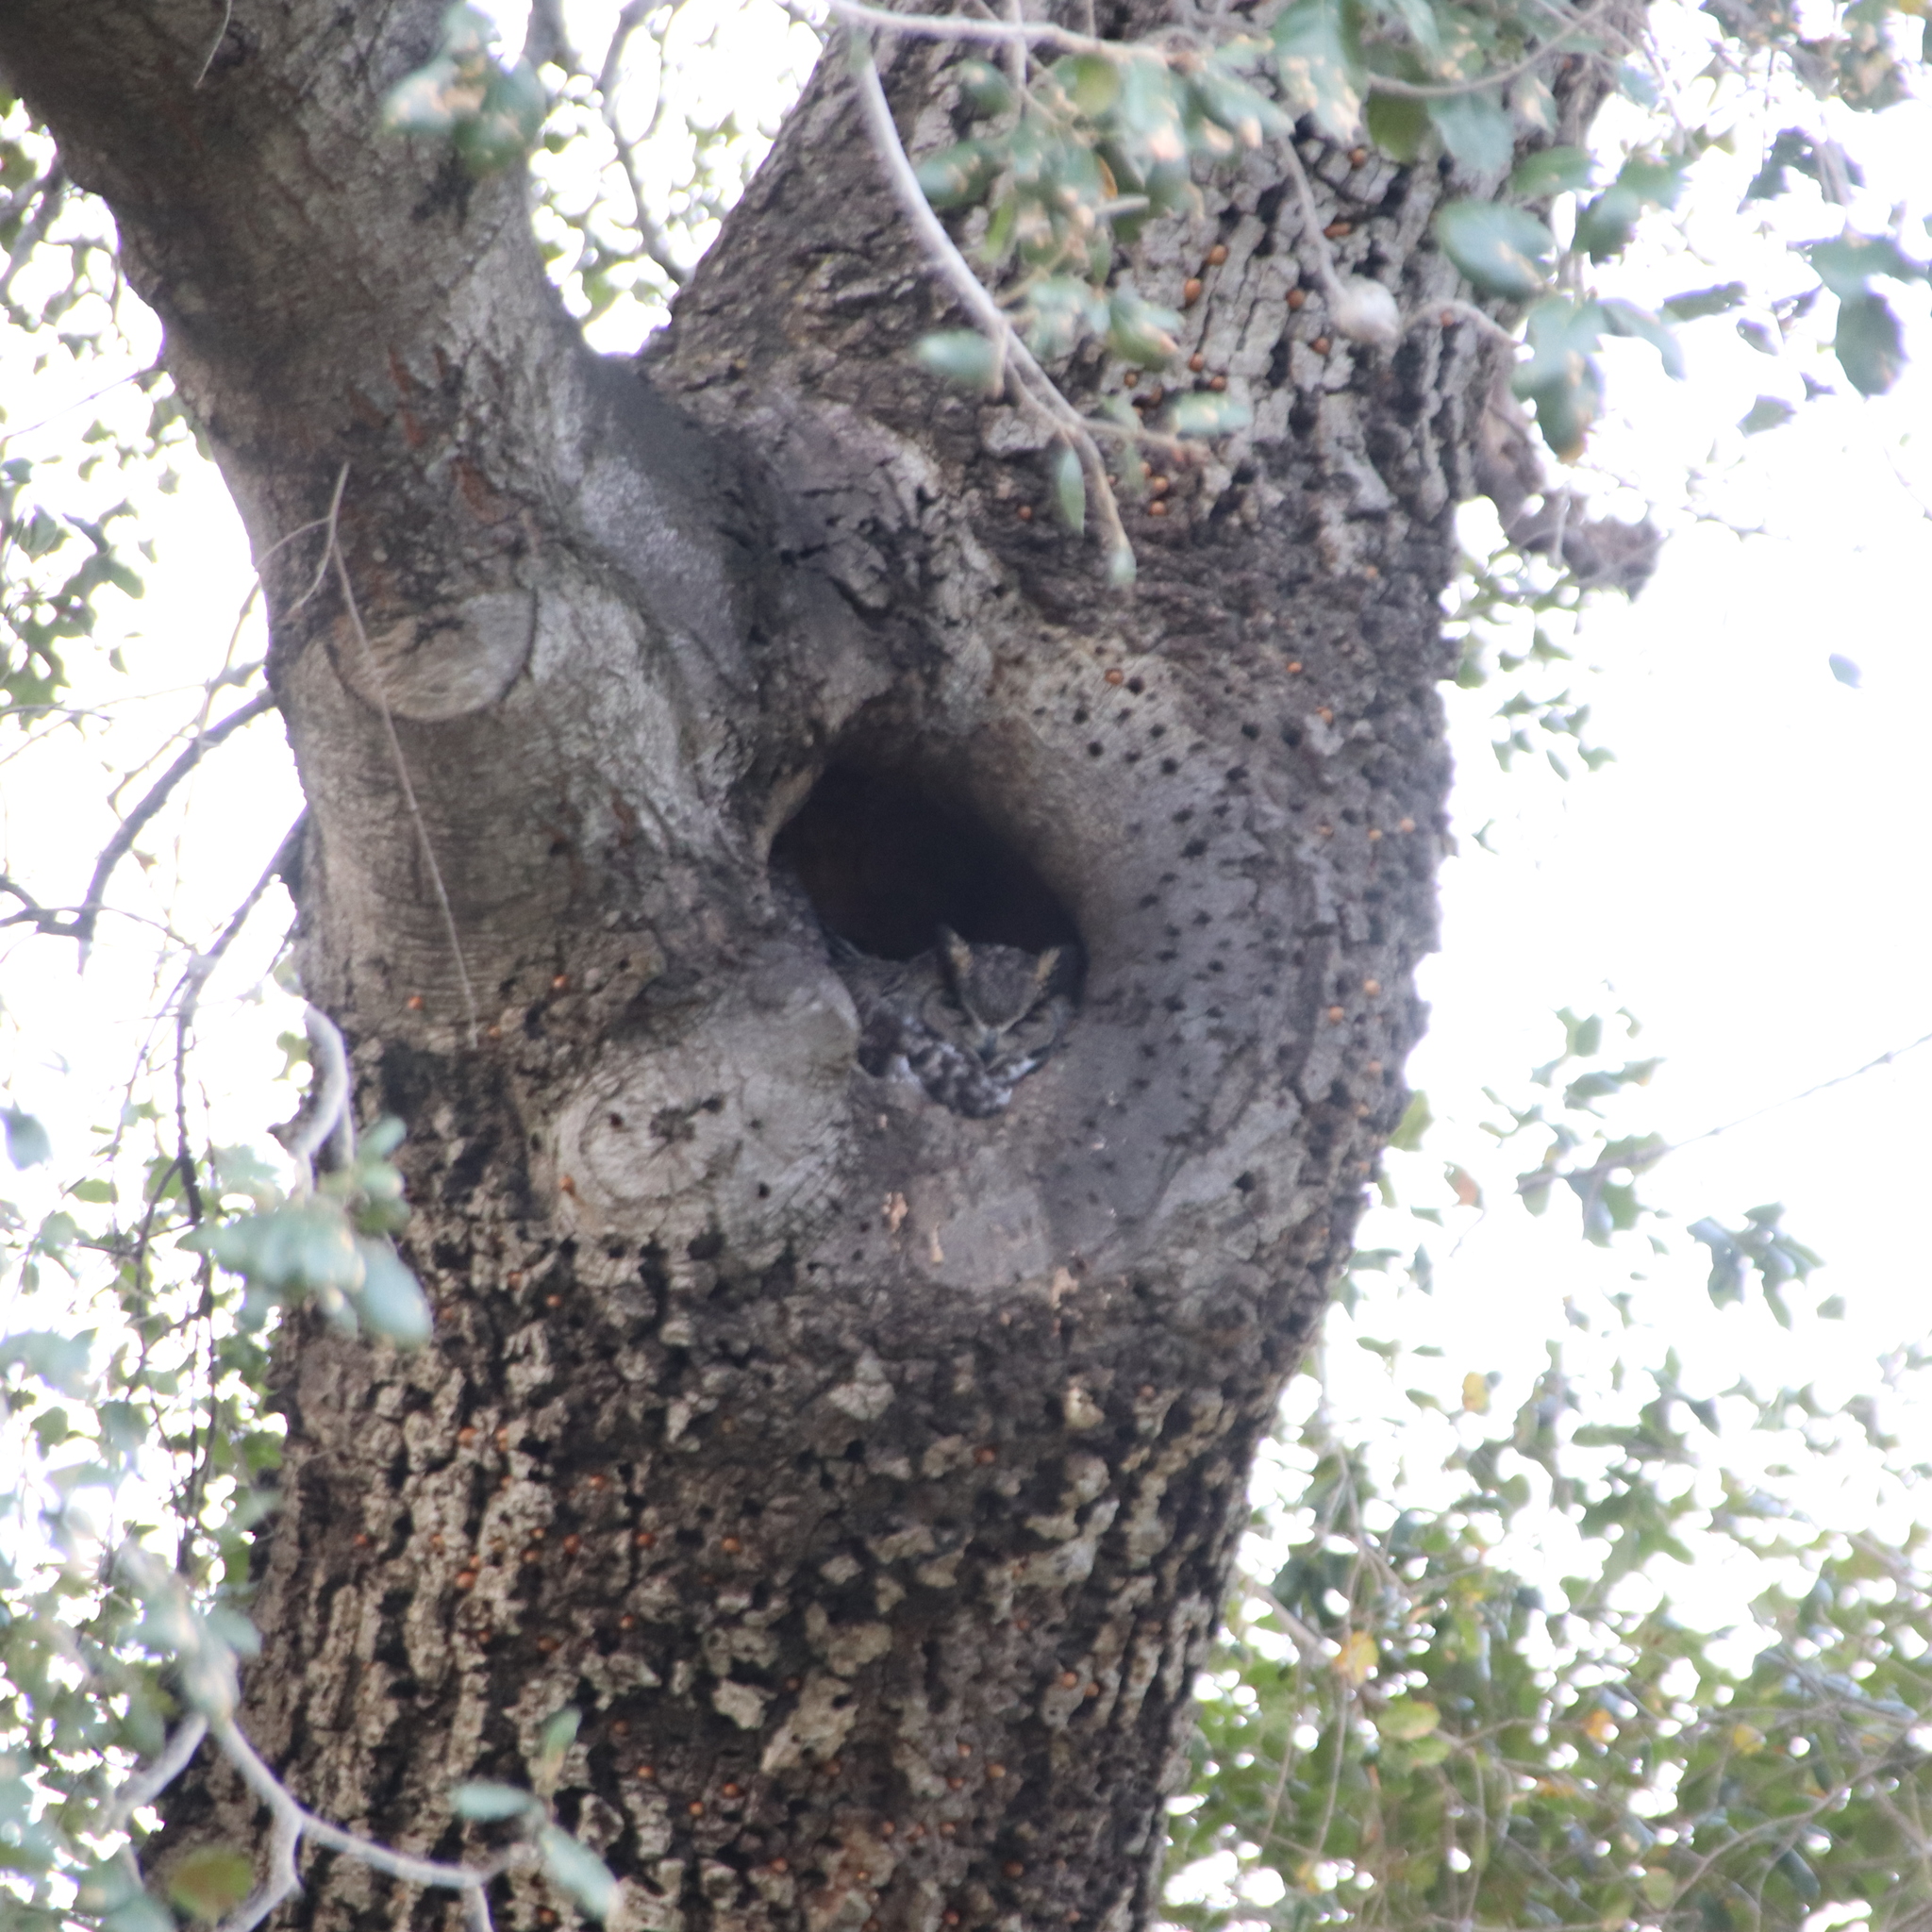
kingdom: Animalia
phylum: Chordata
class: Aves
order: Strigiformes
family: Strigidae
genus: Bubo
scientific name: Bubo virginianus
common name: Great horned owl
